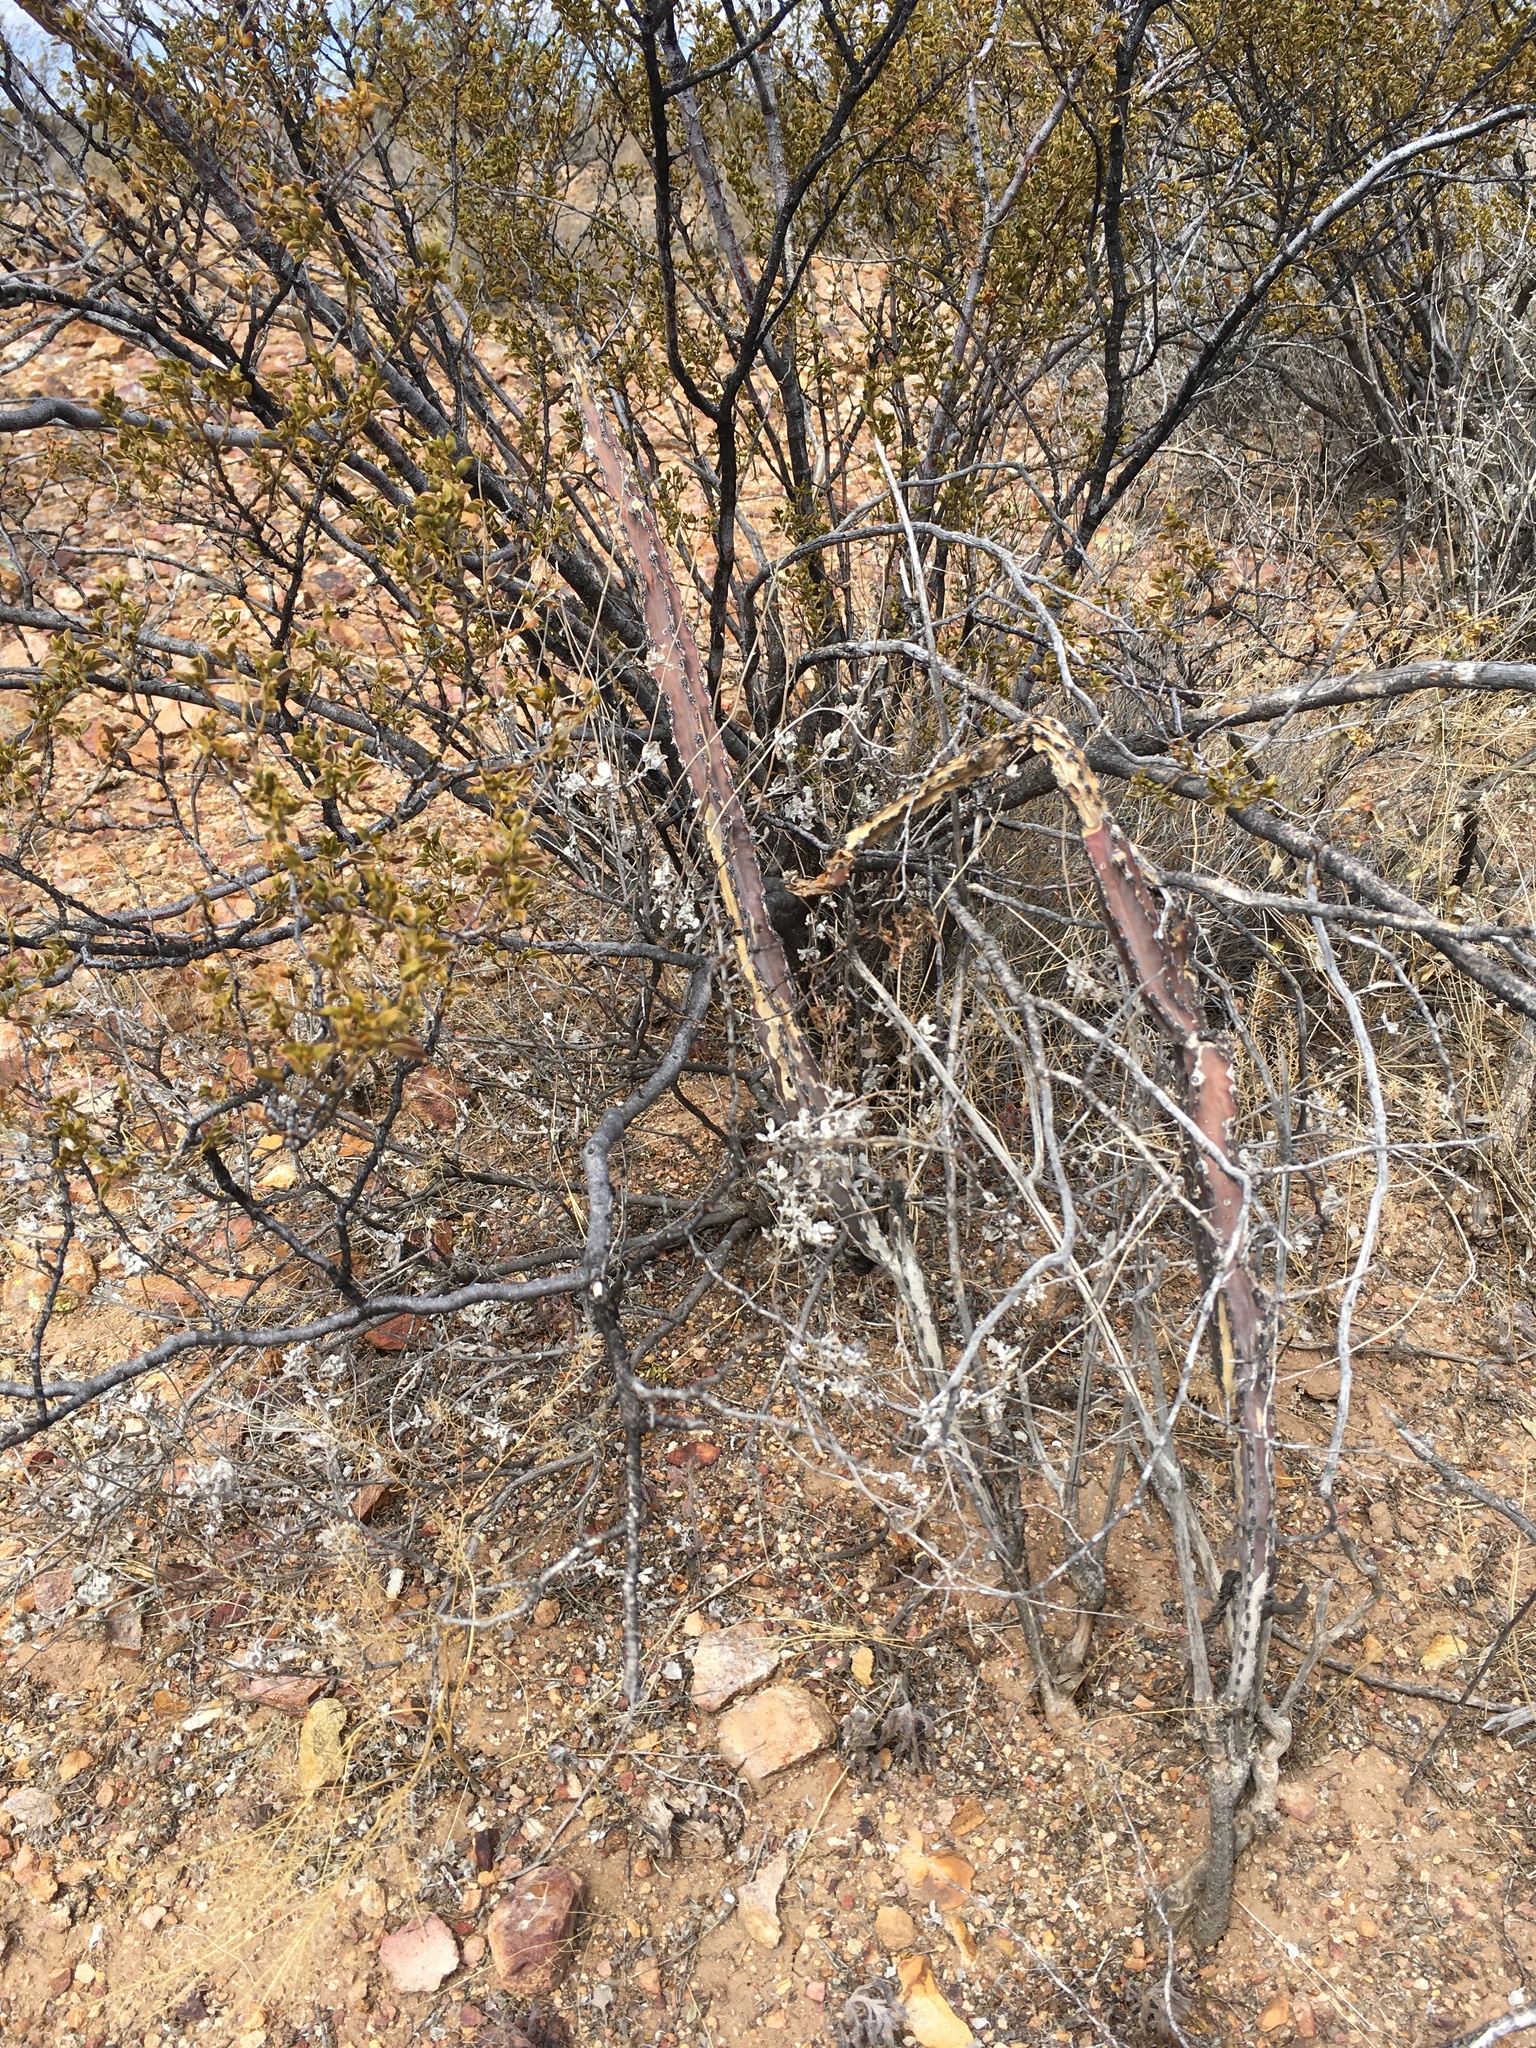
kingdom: Plantae
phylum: Tracheophyta
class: Magnoliopsida
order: Caryophyllales
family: Cactaceae
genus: Peniocereus
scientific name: Peniocereus greggii
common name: Desert night-blooming cereus
